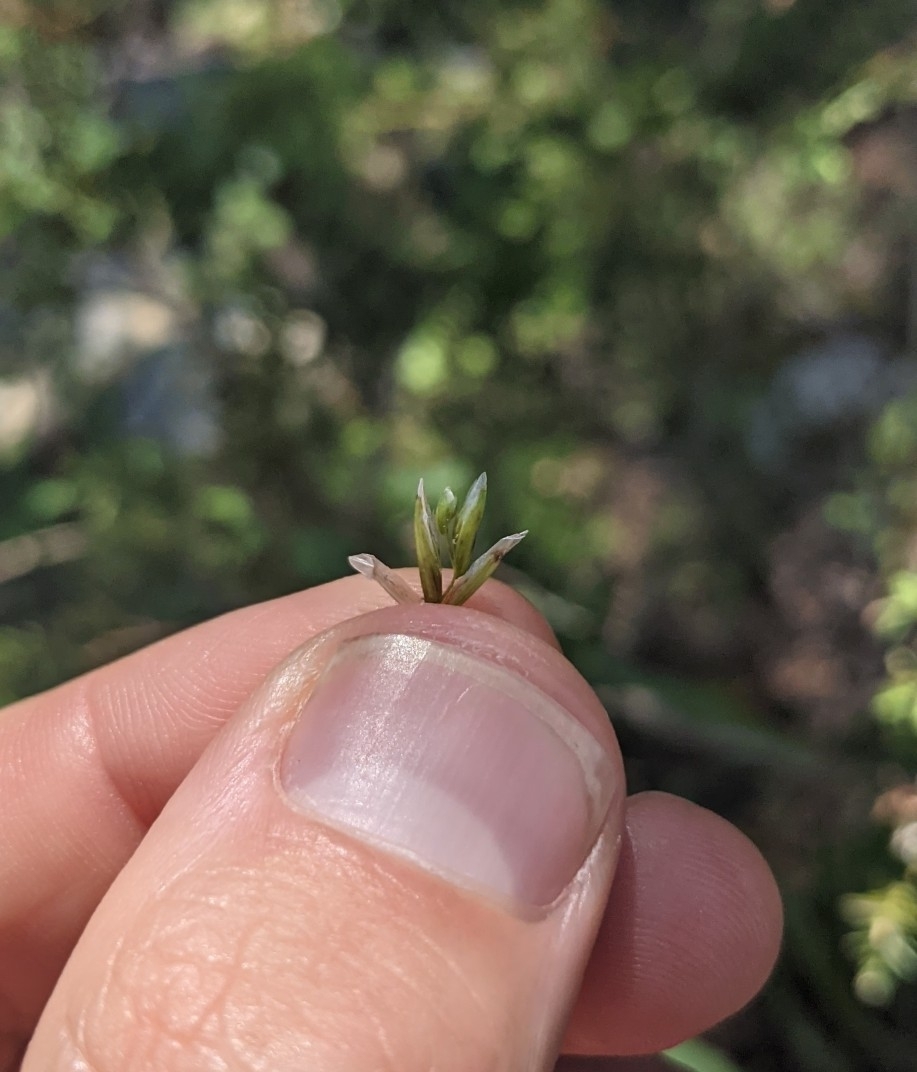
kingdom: Plantae
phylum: Tracheophyta
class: Liliopsida
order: Poales
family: Poaceae
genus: Melica
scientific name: Melica nitens
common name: Three-flower melic
